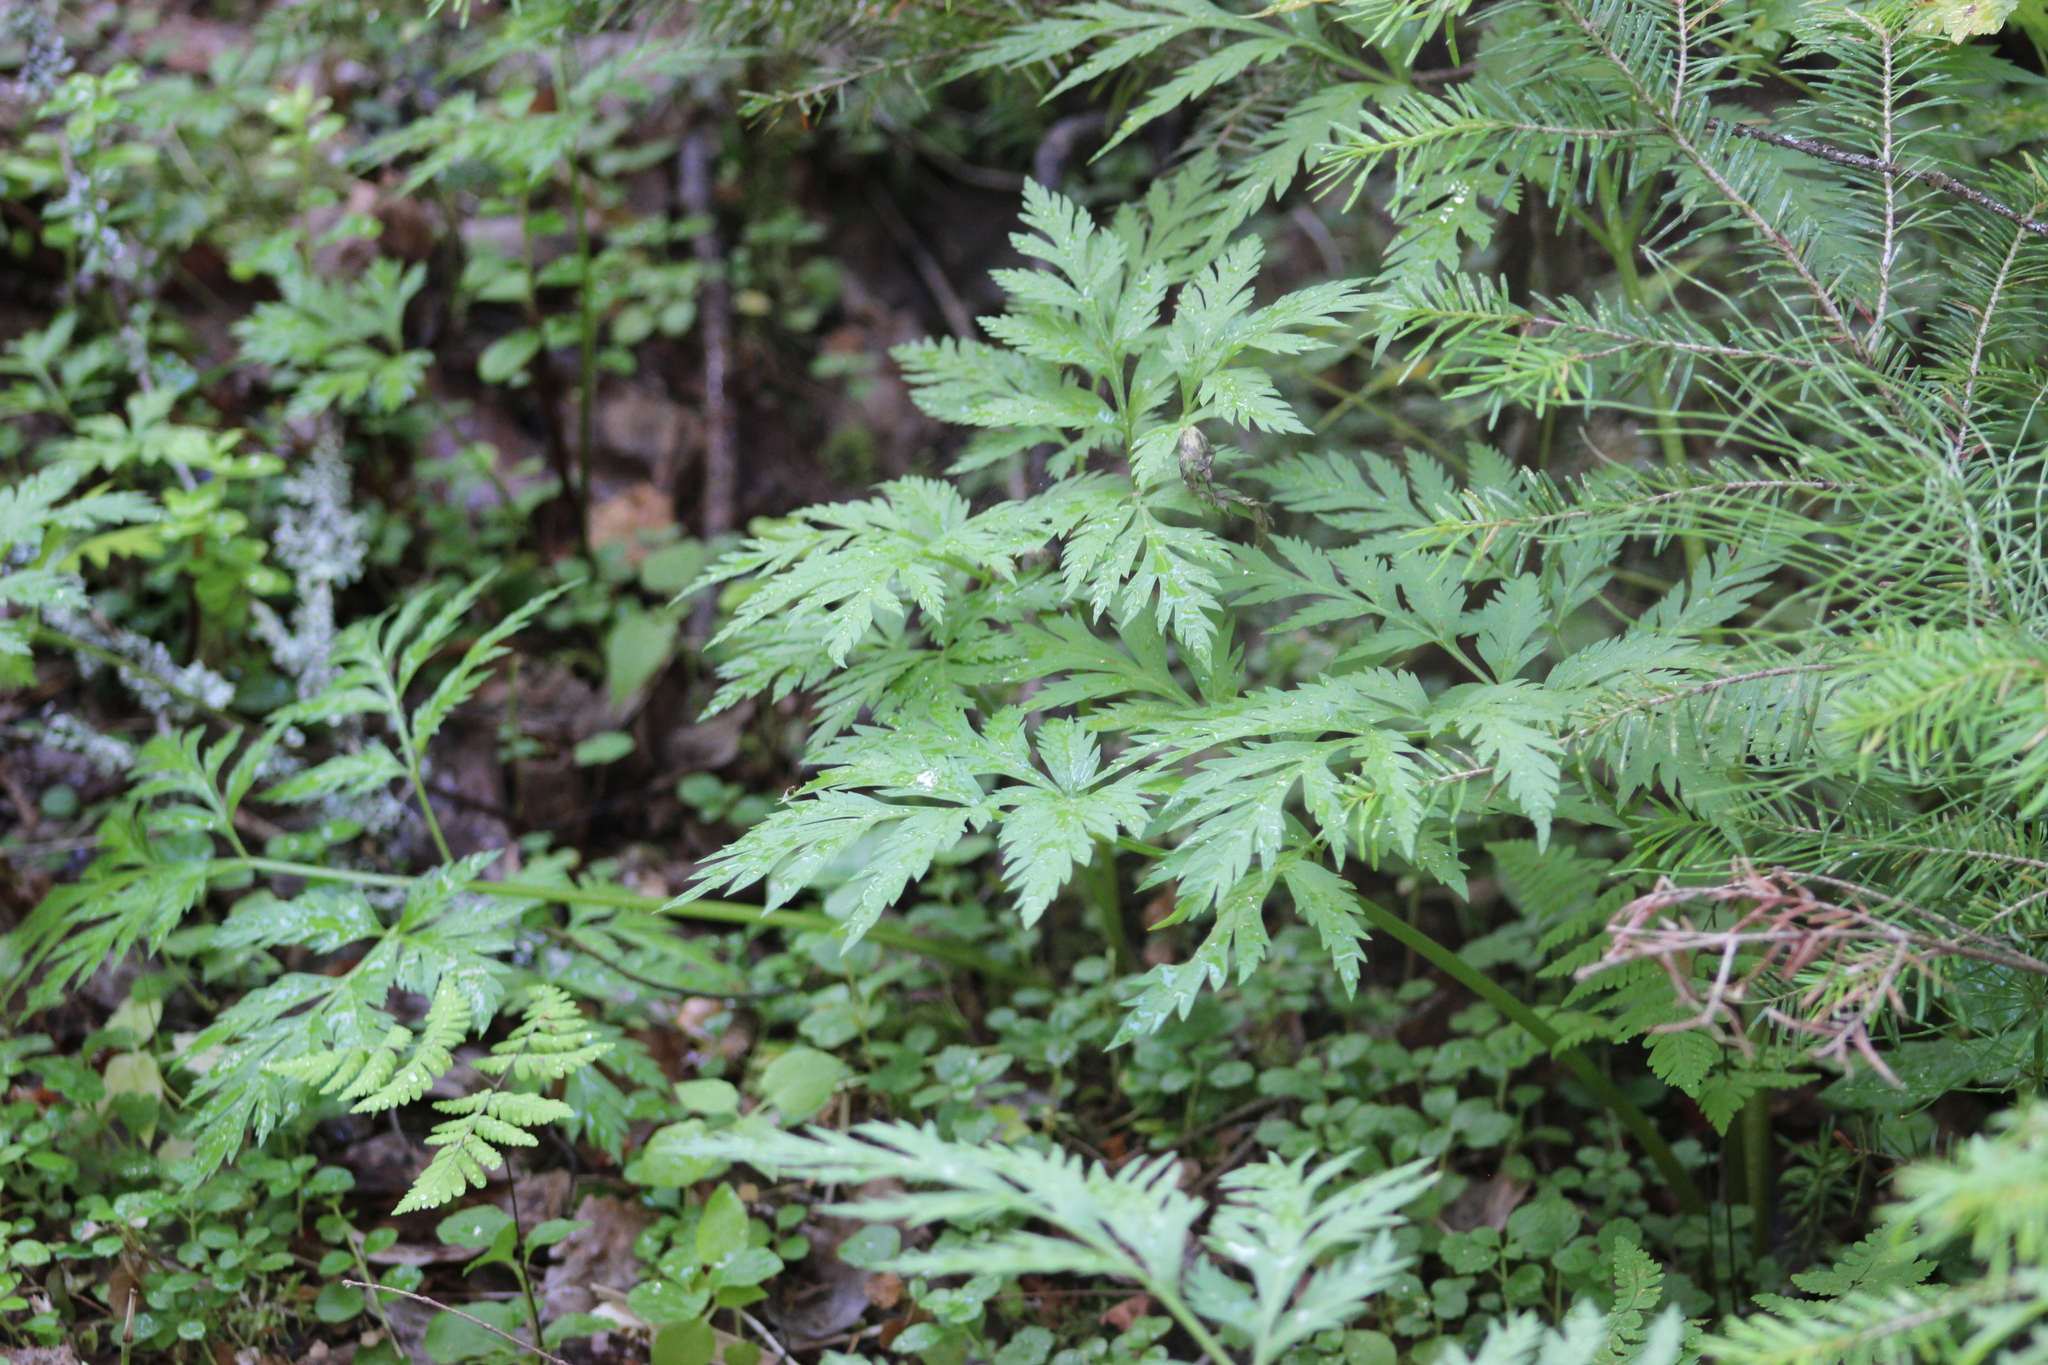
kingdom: Plantae
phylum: Tracheophyta
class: Magnoliopsida
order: Apiales
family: Apiaceae
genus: Pleurospermum
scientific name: Pleurospermum uralense
